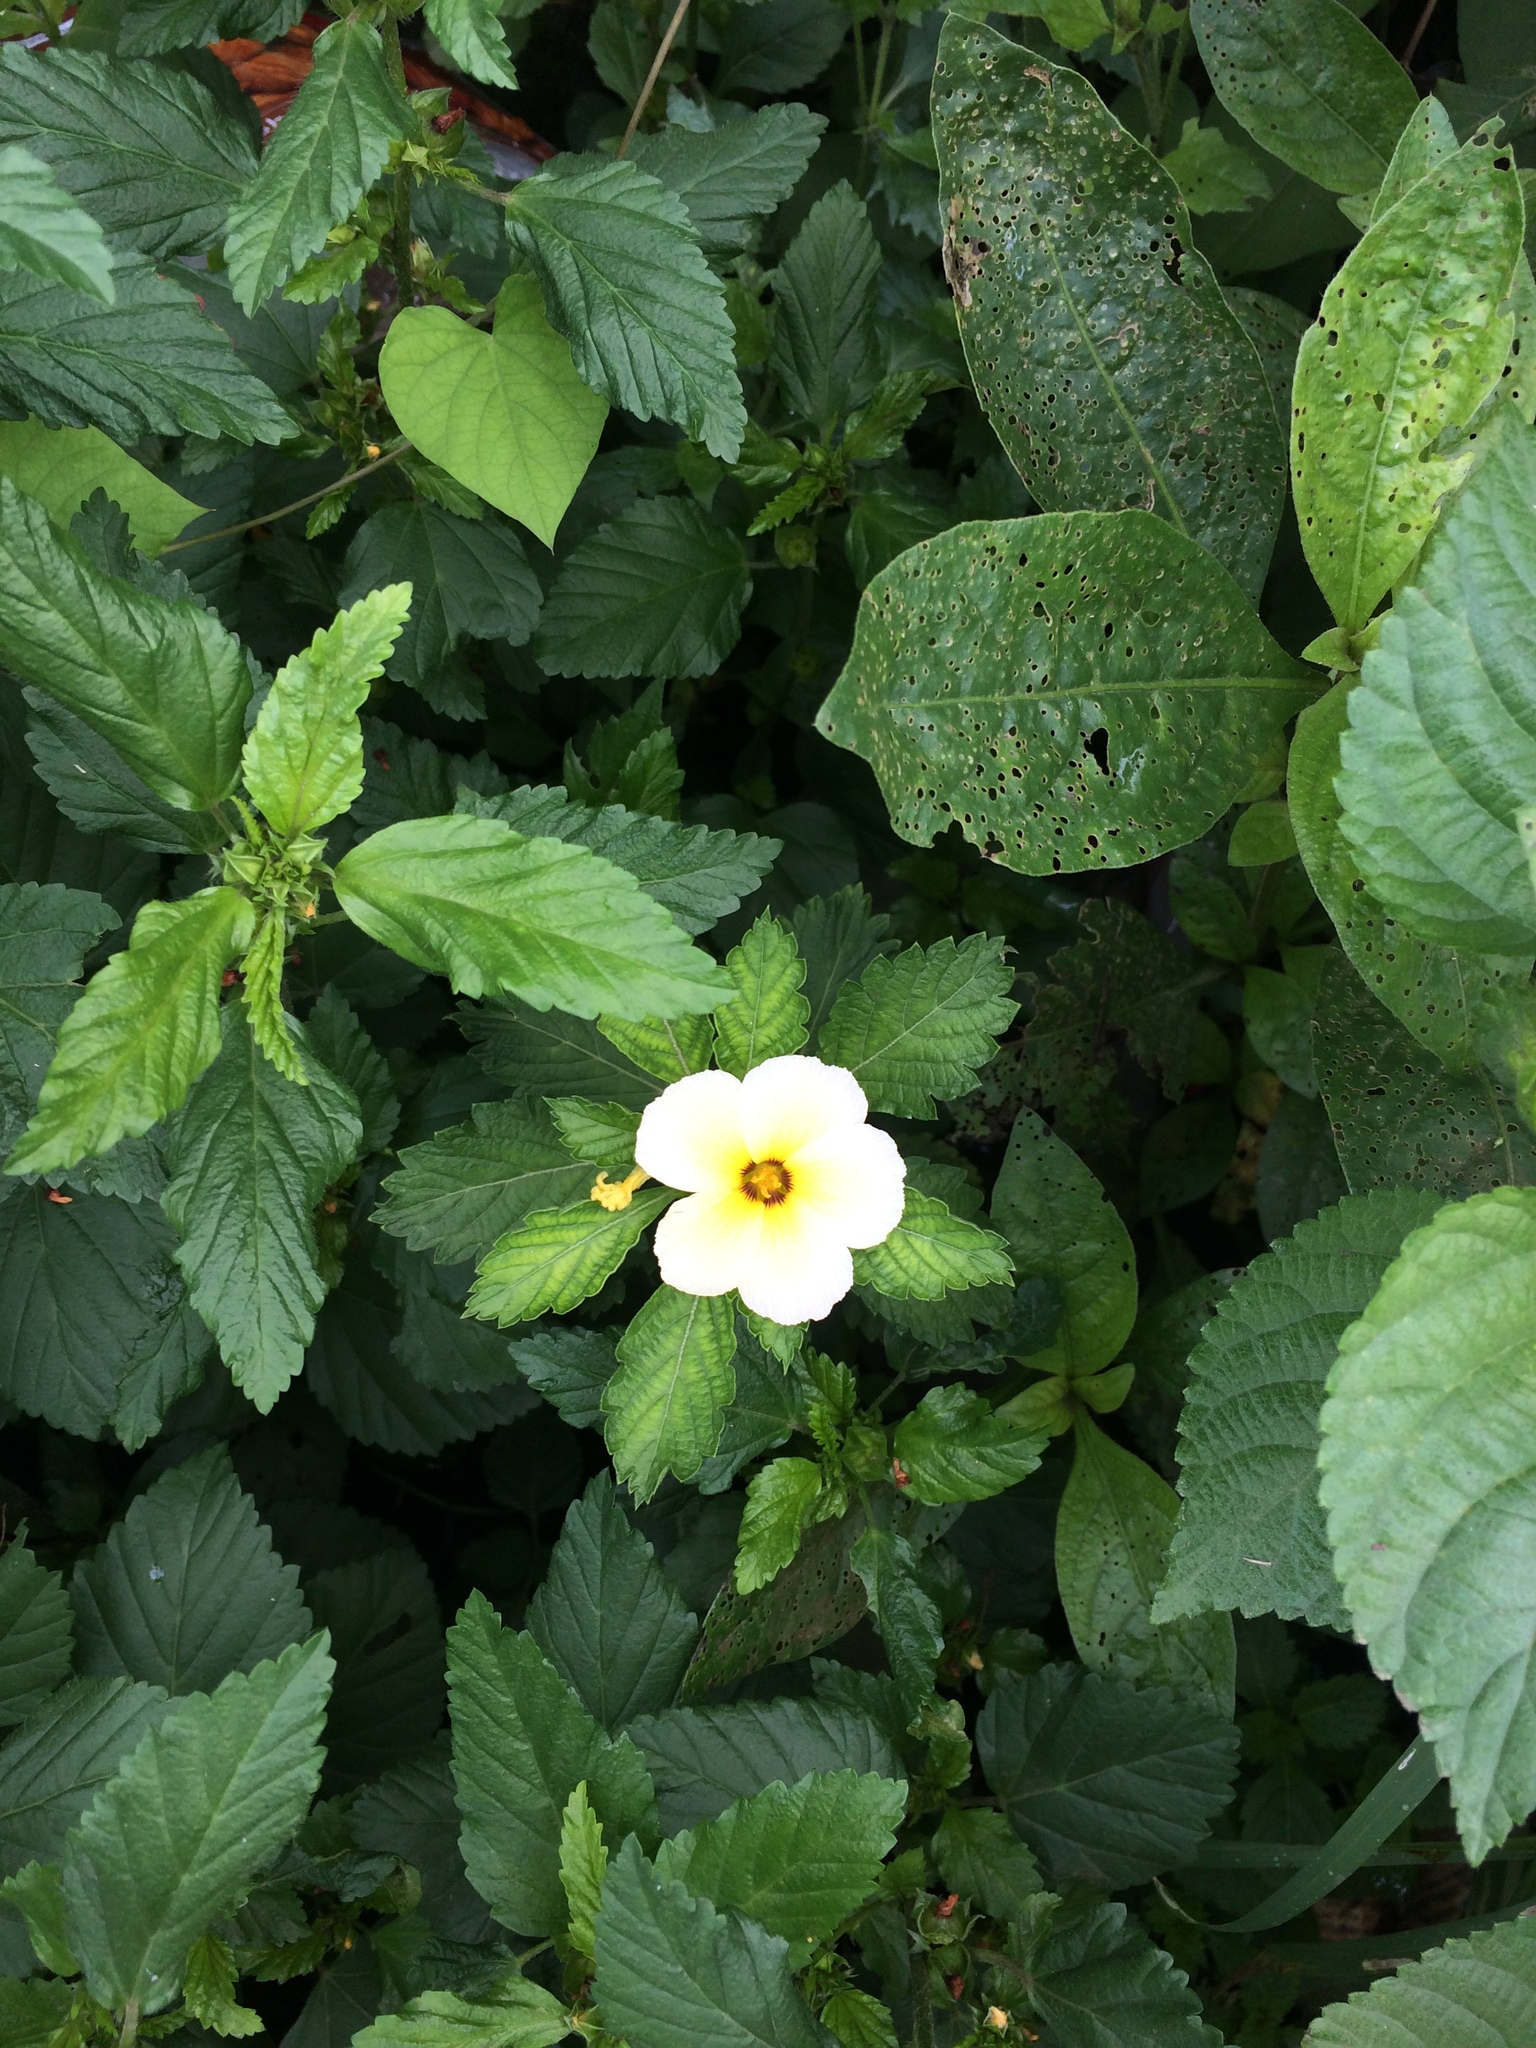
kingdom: Plantae
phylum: Tracheophyta
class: Magnoliopsida
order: Malpighiales
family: Turneraceae
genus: Turnera
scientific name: Turnera subulata
